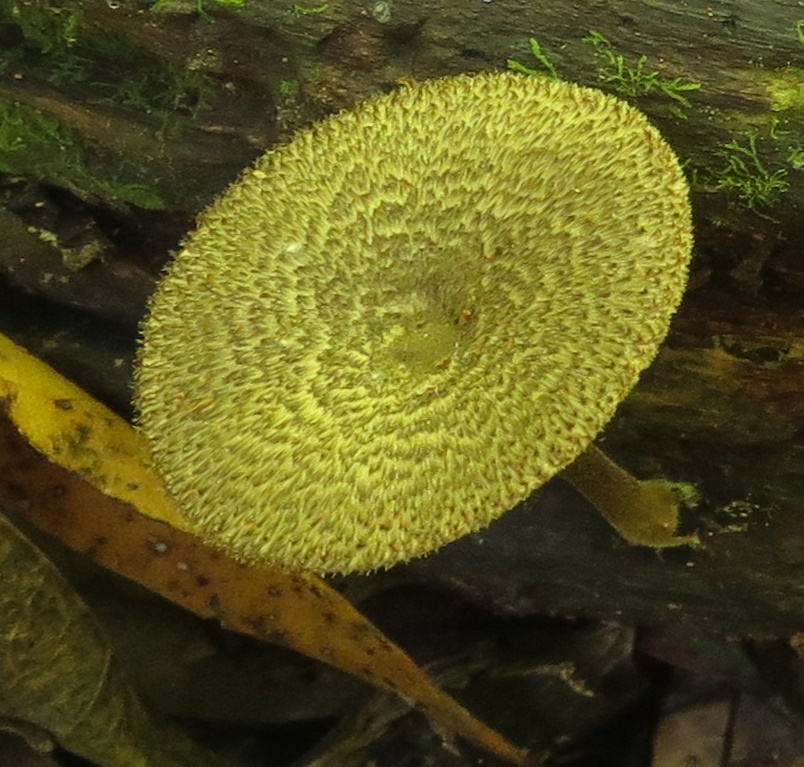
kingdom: Fungi
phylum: Basidiomycota
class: Agaricomycetes
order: Polyporales
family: Polyporaceae
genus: Lentinus
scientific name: Lentinus arcularius
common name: Spring polypore
